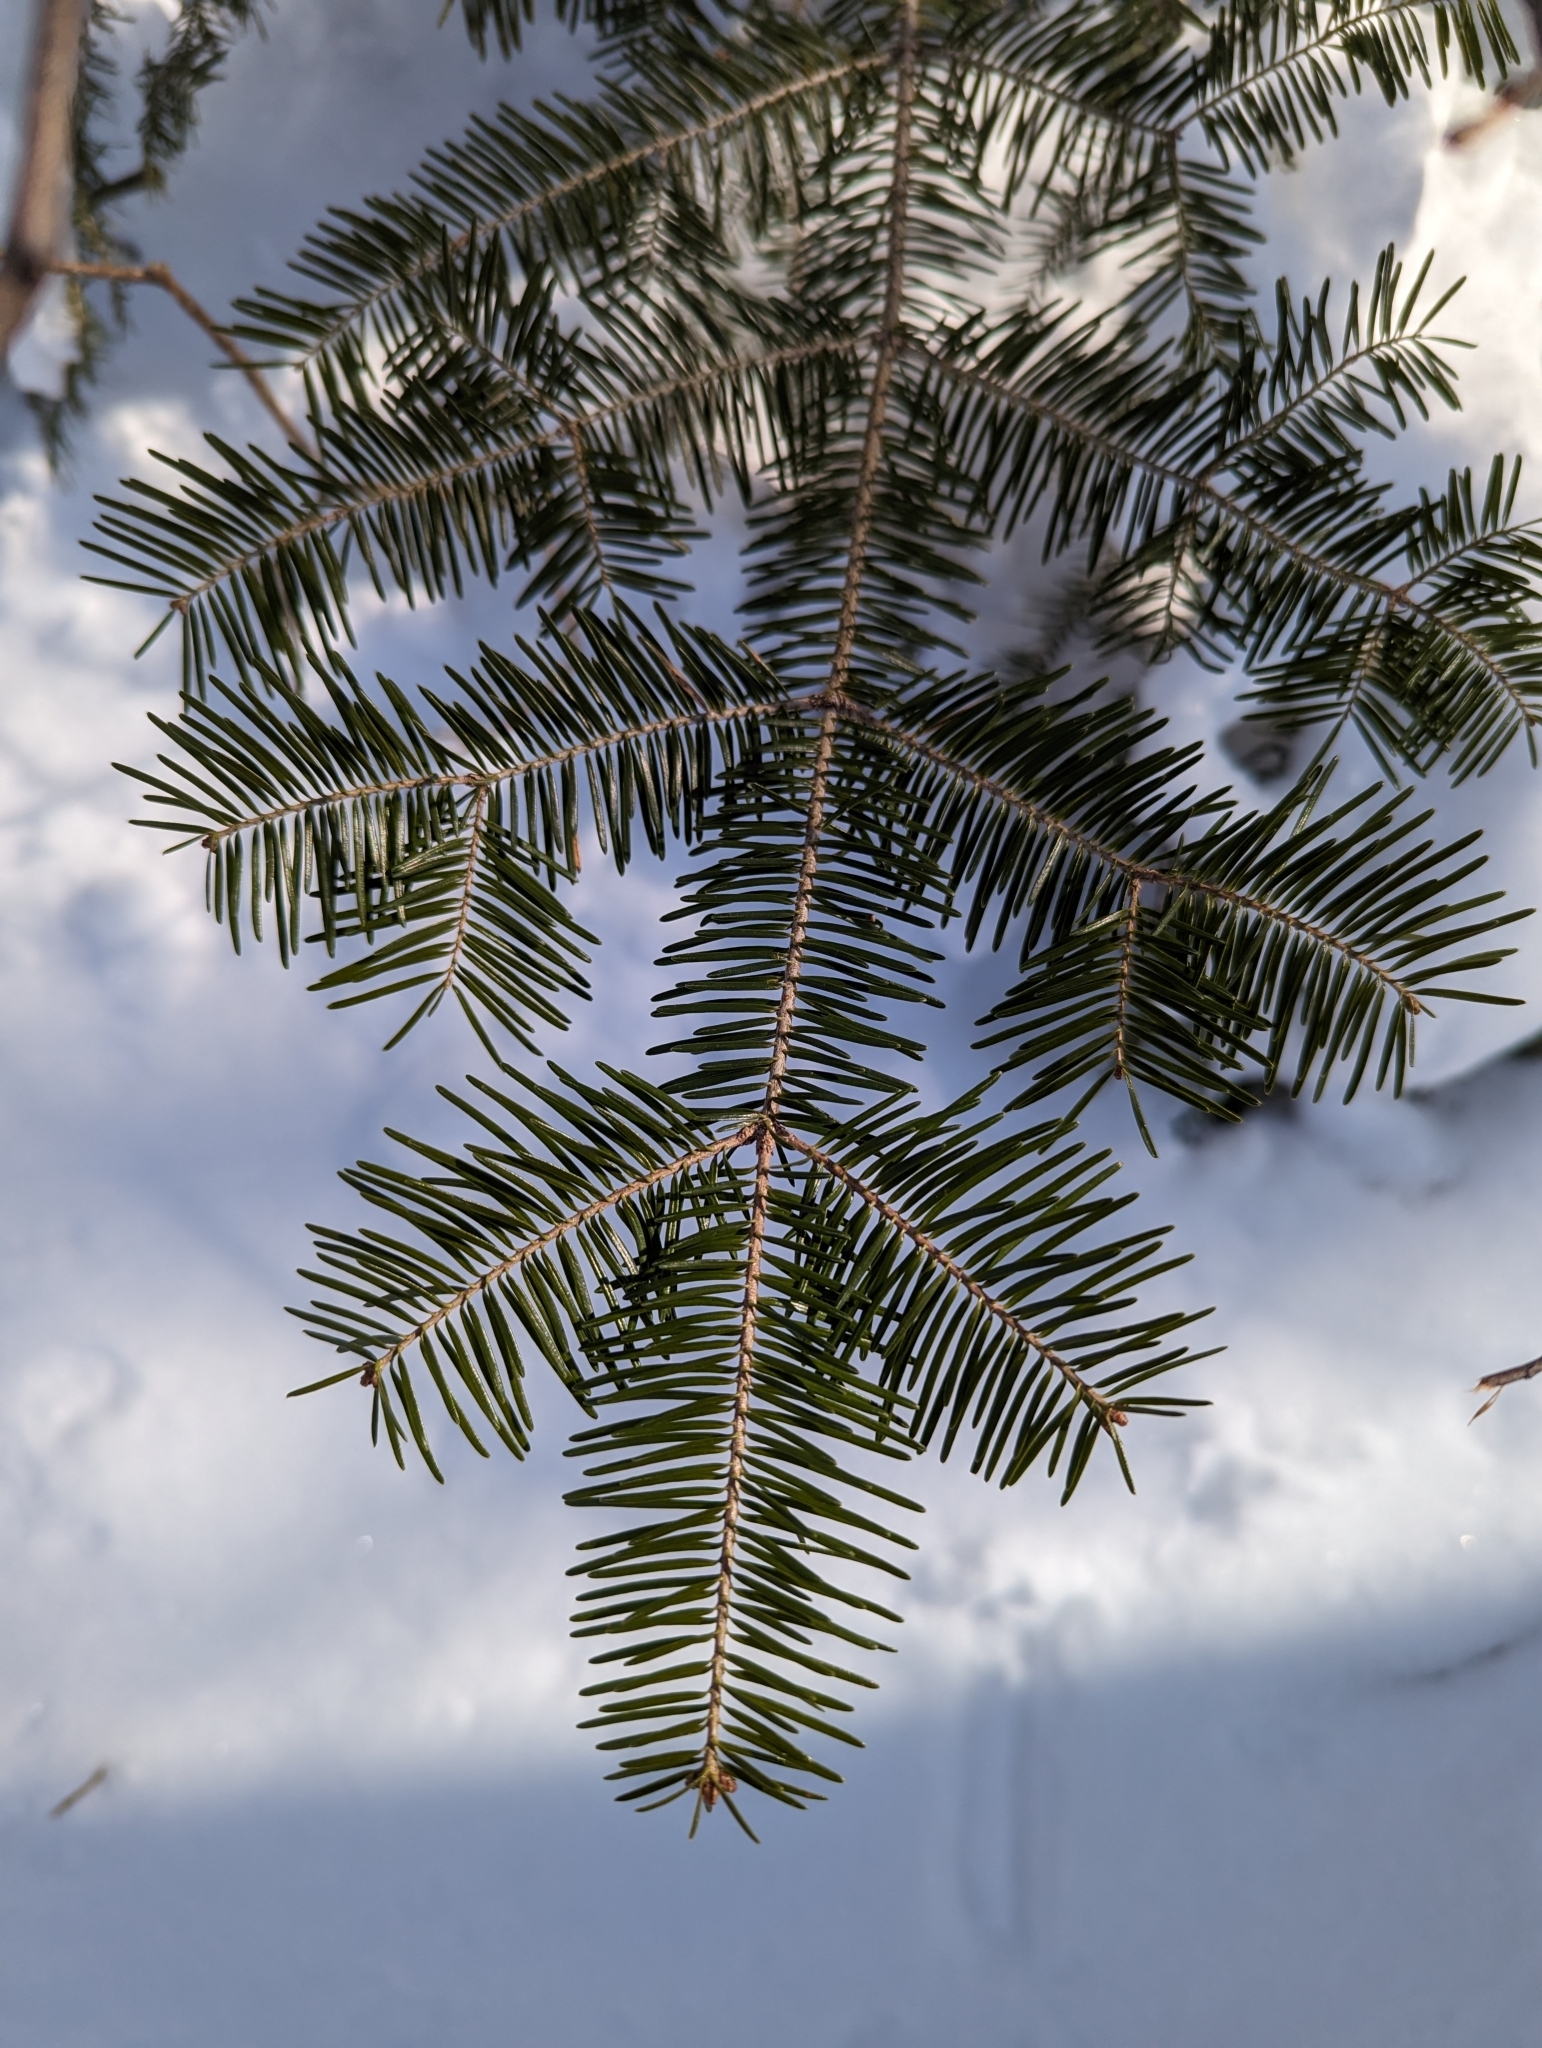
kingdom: Plantae
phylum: Tracheophyta
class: Pinopsida
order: Pinales
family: Pinaceae
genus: Abies
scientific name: Abies balsamea
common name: Balsam fir
